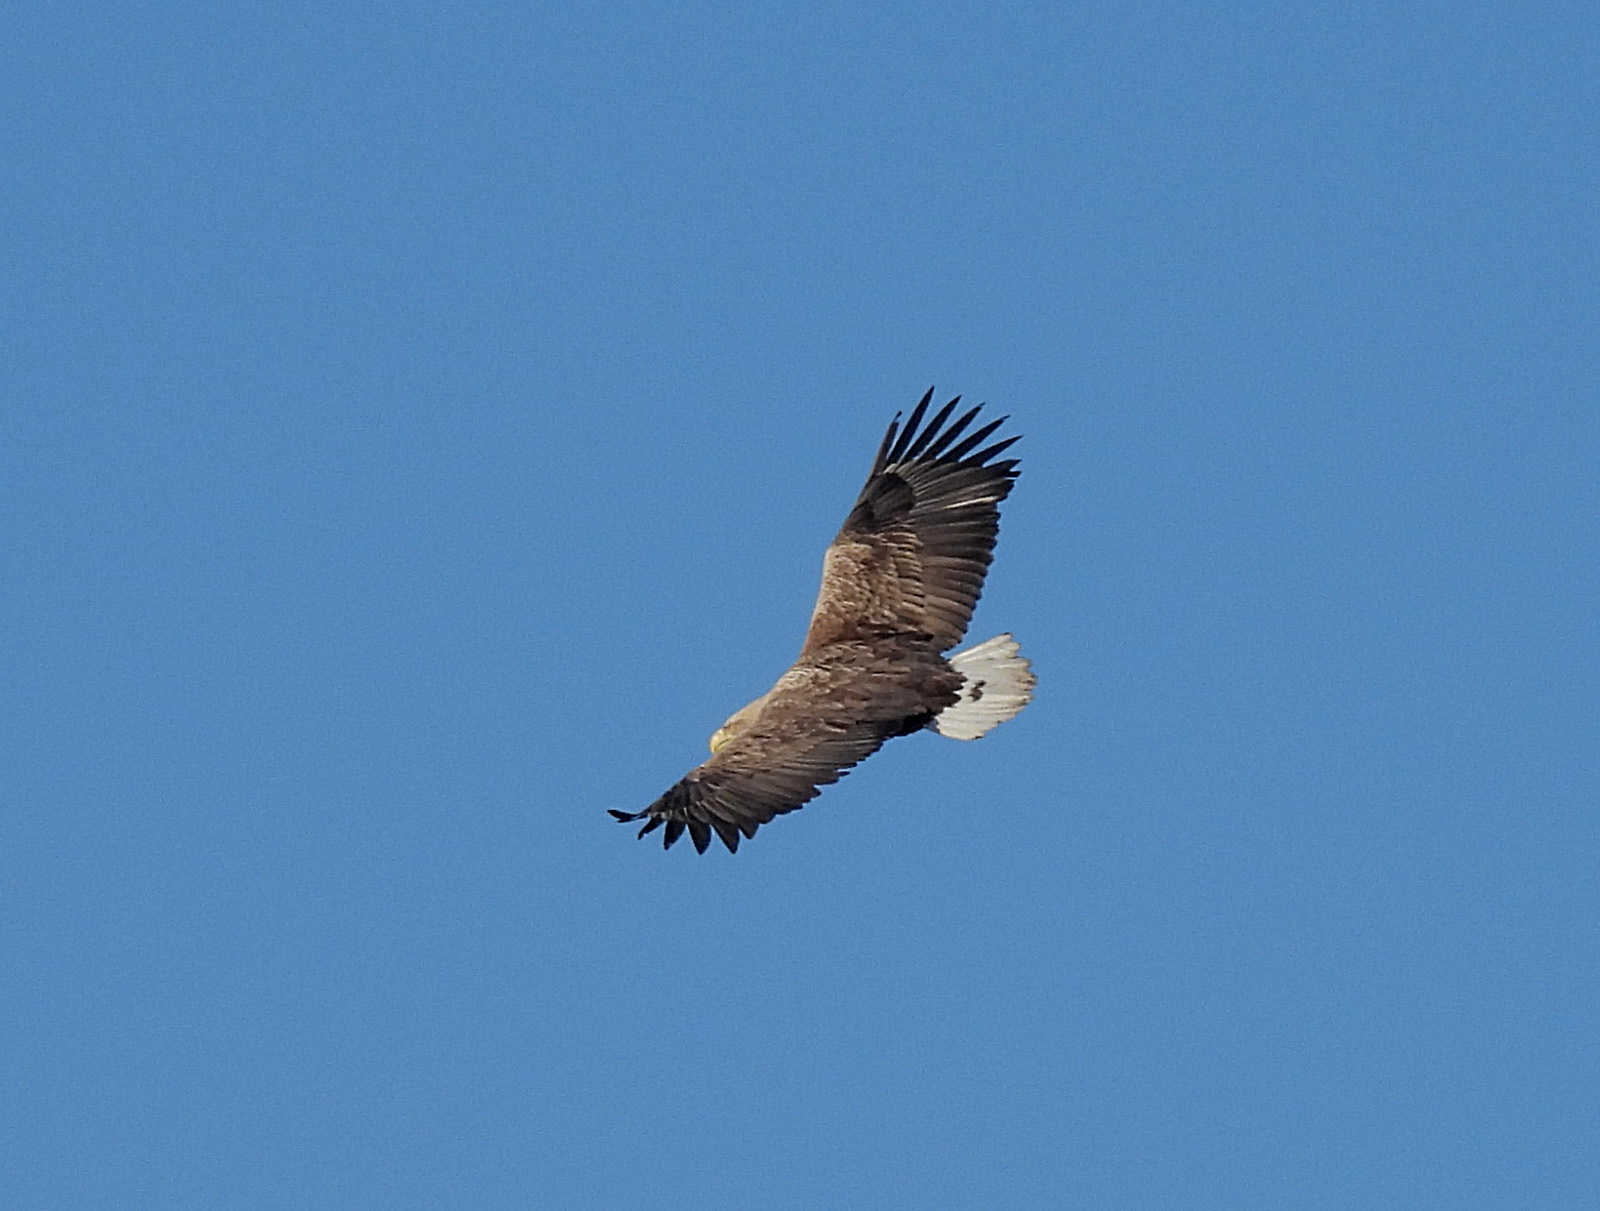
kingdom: Animalia
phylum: Chordata
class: Aves
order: Accipitriformes
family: Accipitridae
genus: Haliaeetus
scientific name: Haliaeetus albicilla
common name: White-tailed eagle
